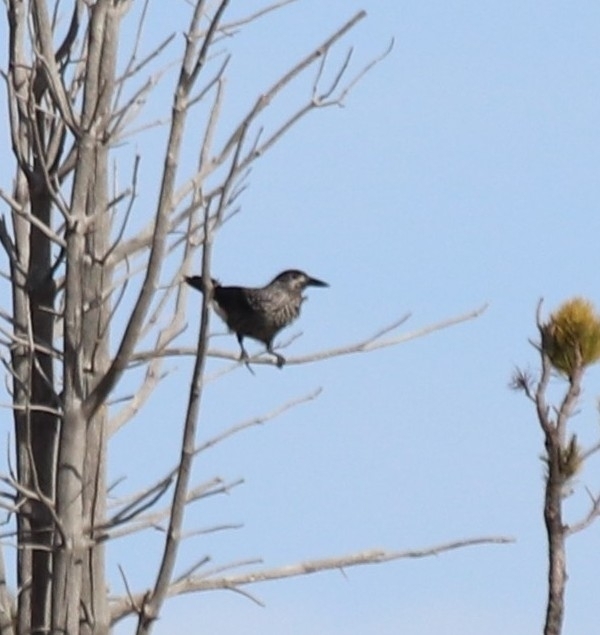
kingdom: Animalia
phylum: Chordata
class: Aves
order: Passeriformes
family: Corvidae
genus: Nucifraga
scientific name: Nucifraga caryocatactes
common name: Spotted nutcracker
